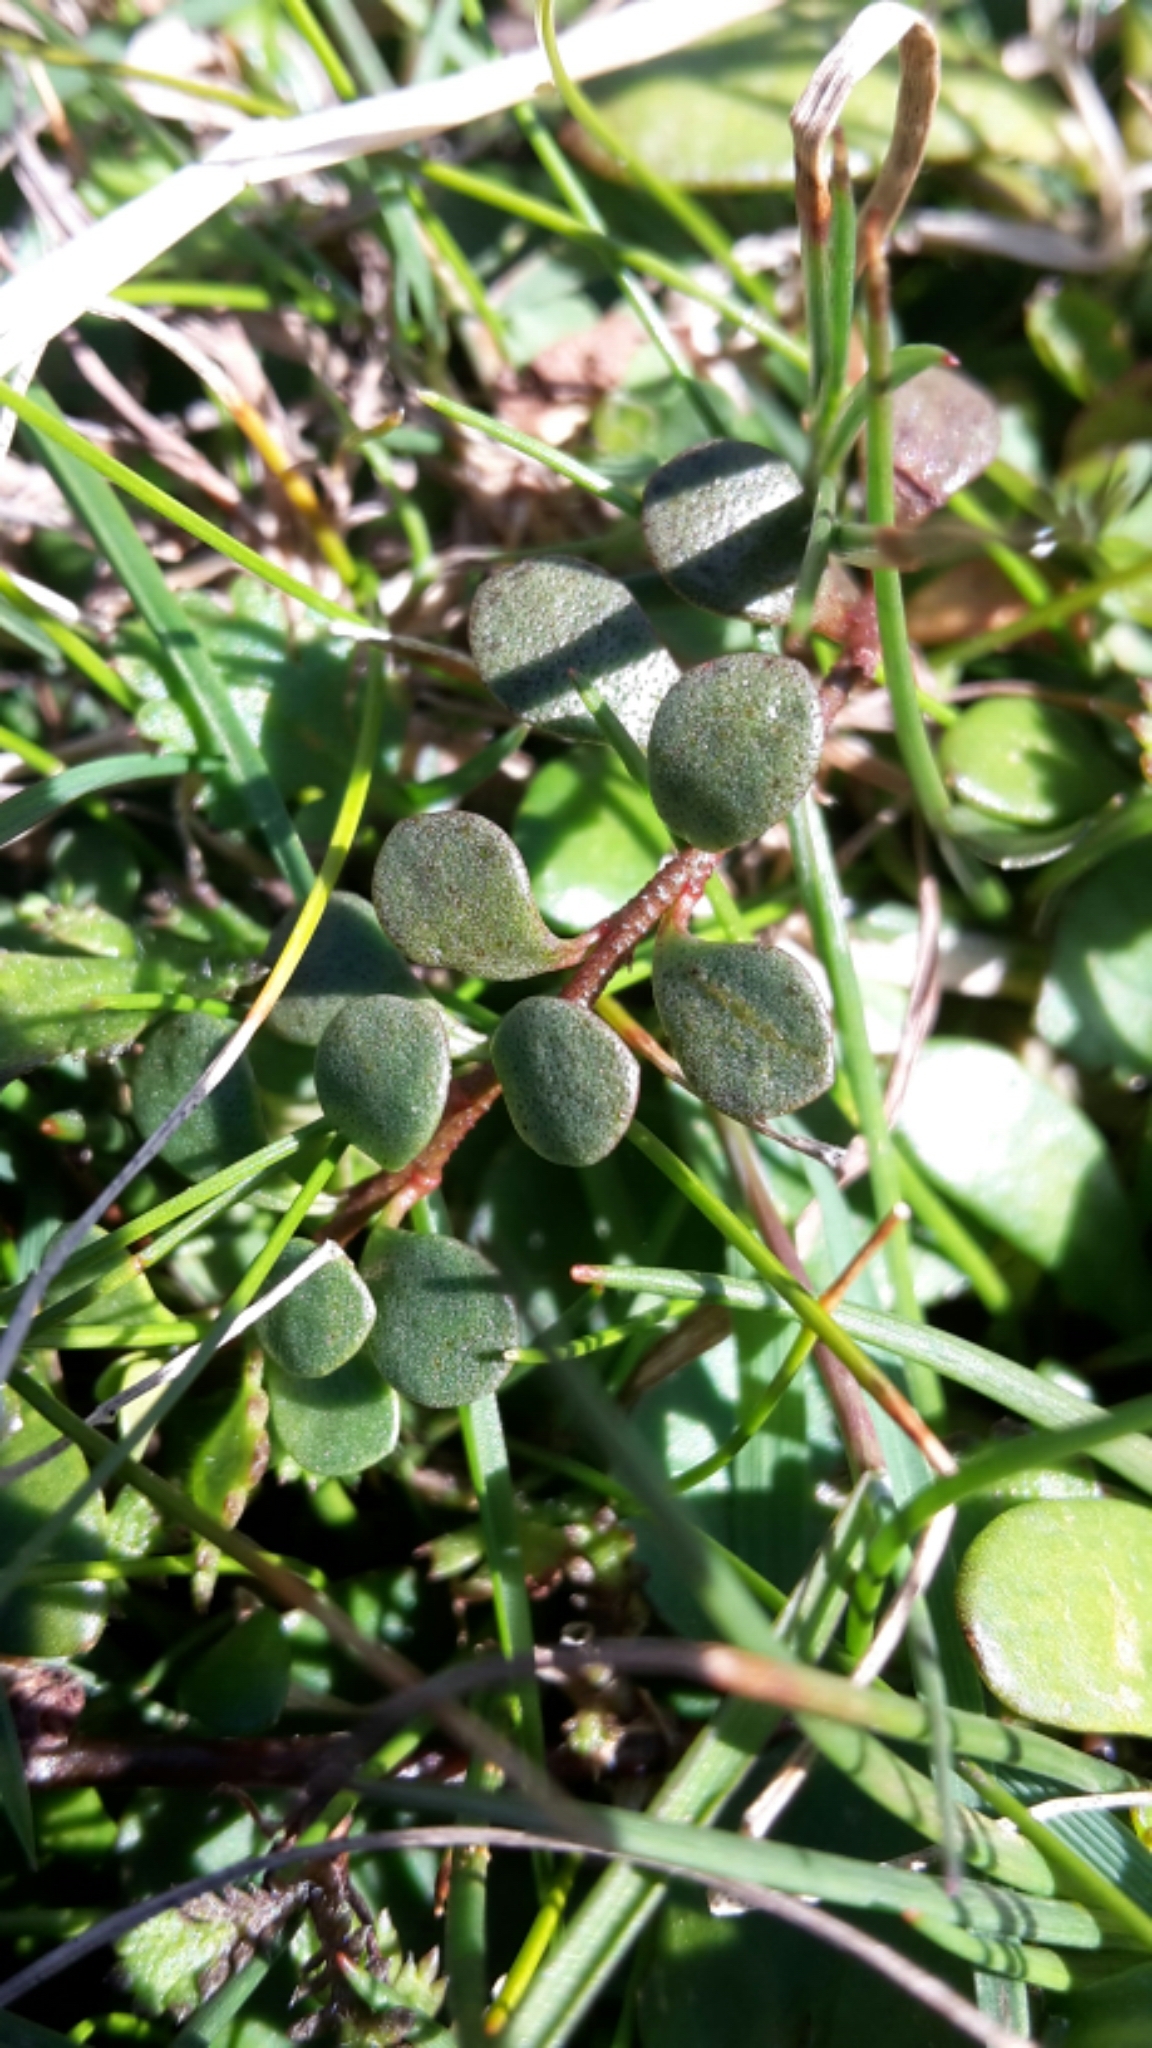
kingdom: Plantae
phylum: Tracheophyta
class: Magnoliopsida
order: Ericales
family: Primulaceae
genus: Samolus
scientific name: Samolus repens
